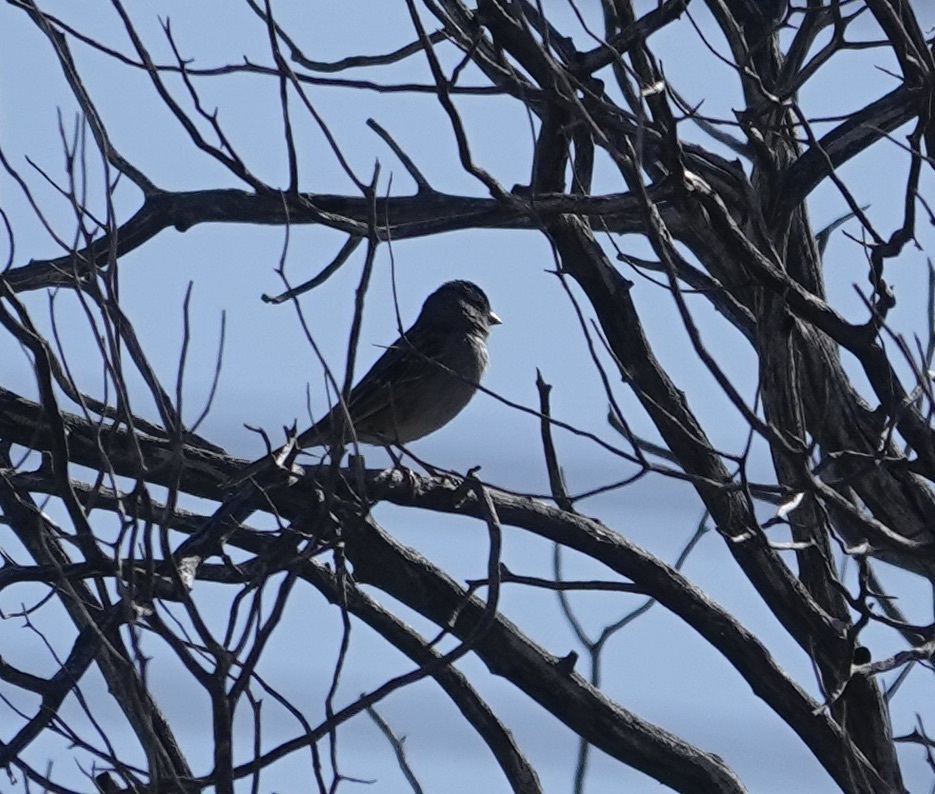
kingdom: Animalia
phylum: Chordata
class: Aves
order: Passeriformes
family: Passerellidae
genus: Zonotrichia
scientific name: Zonotrichia leucophrys
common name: White-crowned sparrow
